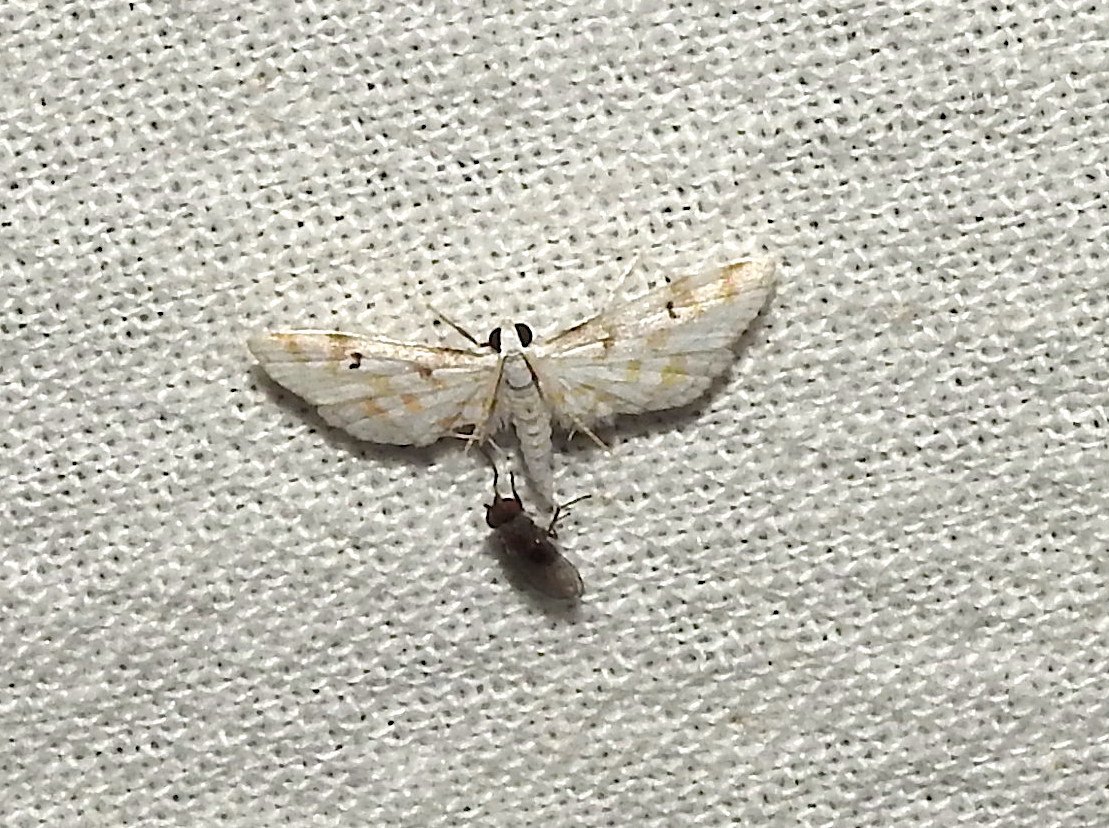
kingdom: Animalia
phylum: Arthropoda
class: Insecta
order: Lepidoptera
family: Crambidae
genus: Parapoynx
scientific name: Parapoynx stagnalis
